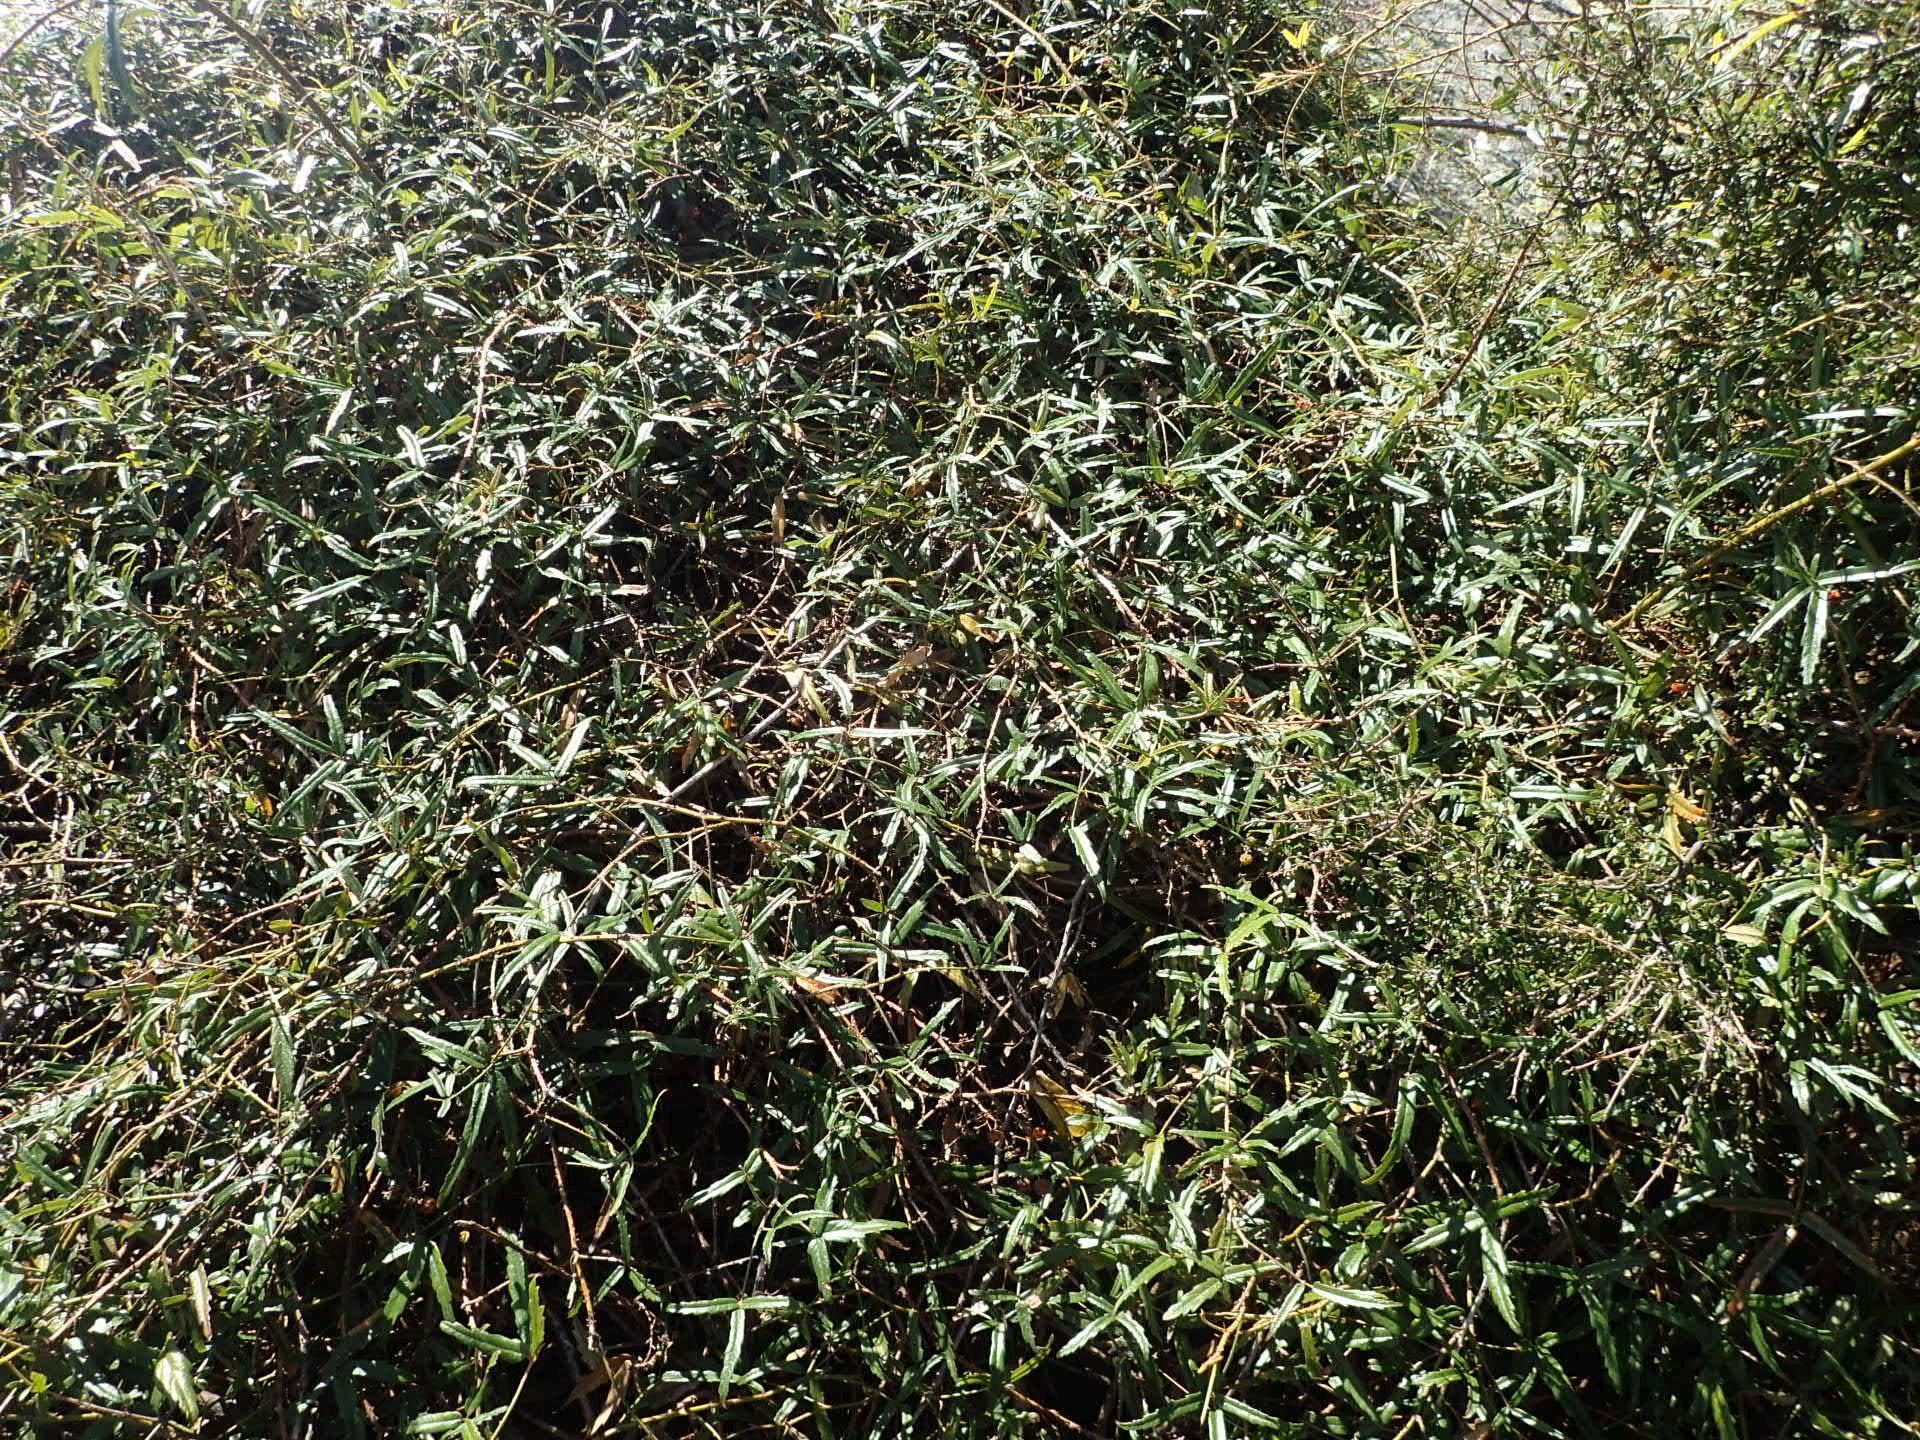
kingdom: Plantae
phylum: Tracheophyta
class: Magnoliopsida
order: Rosales
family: Rosaceae
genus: Rubus
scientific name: Rubus schmidelioides
